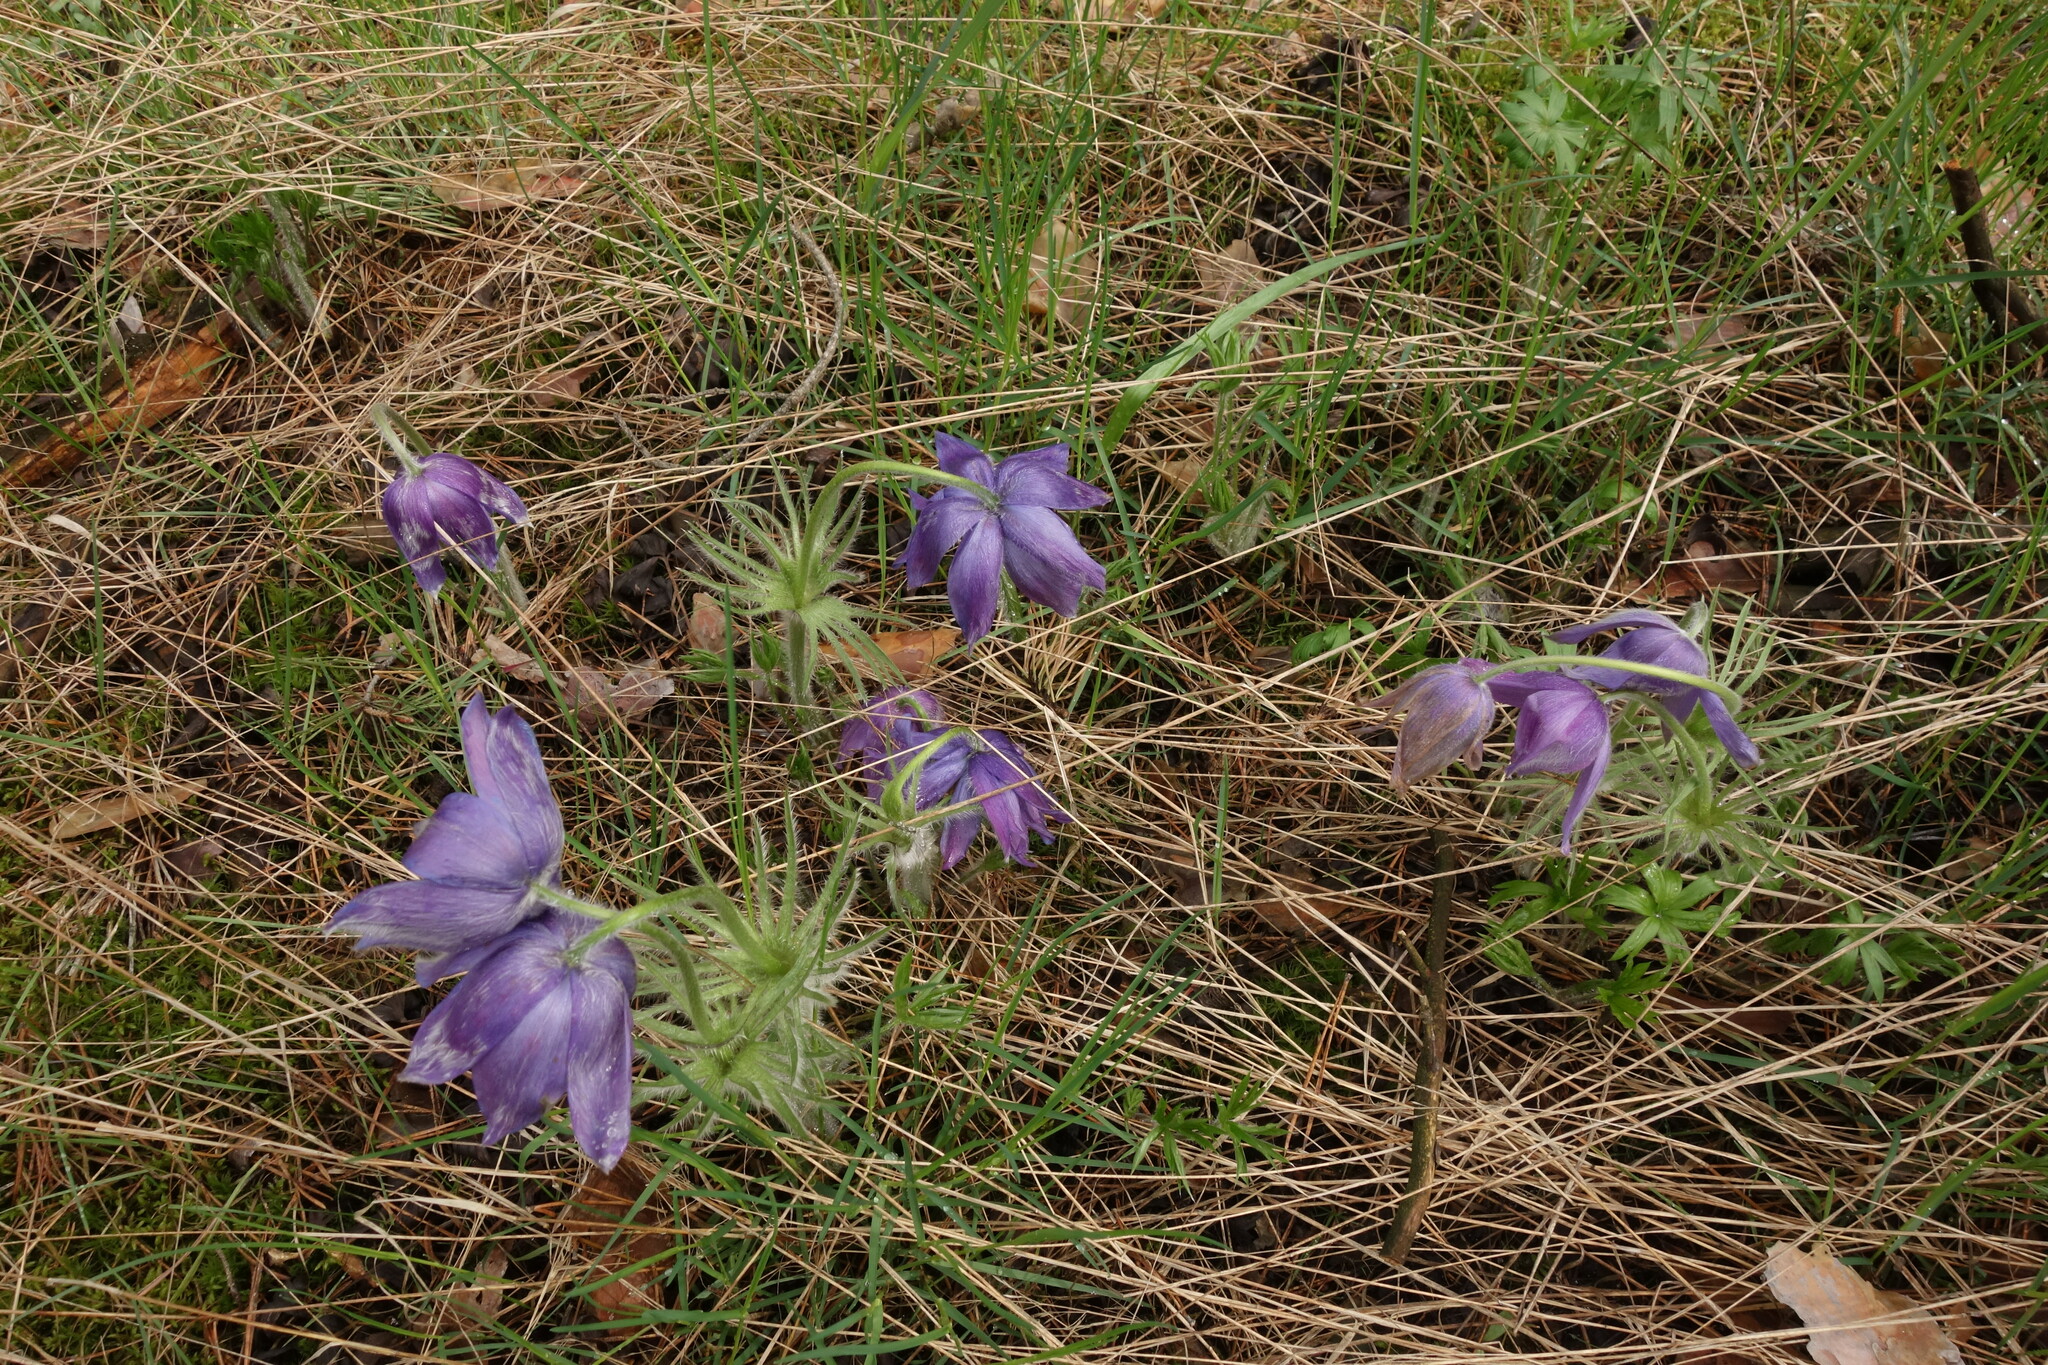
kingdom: Plantae
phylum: Tracheophyta
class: Magnoliopsida
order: Ranunculales
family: Ranunculaceae
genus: Pulsatilla
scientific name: Pulsatilla patens
